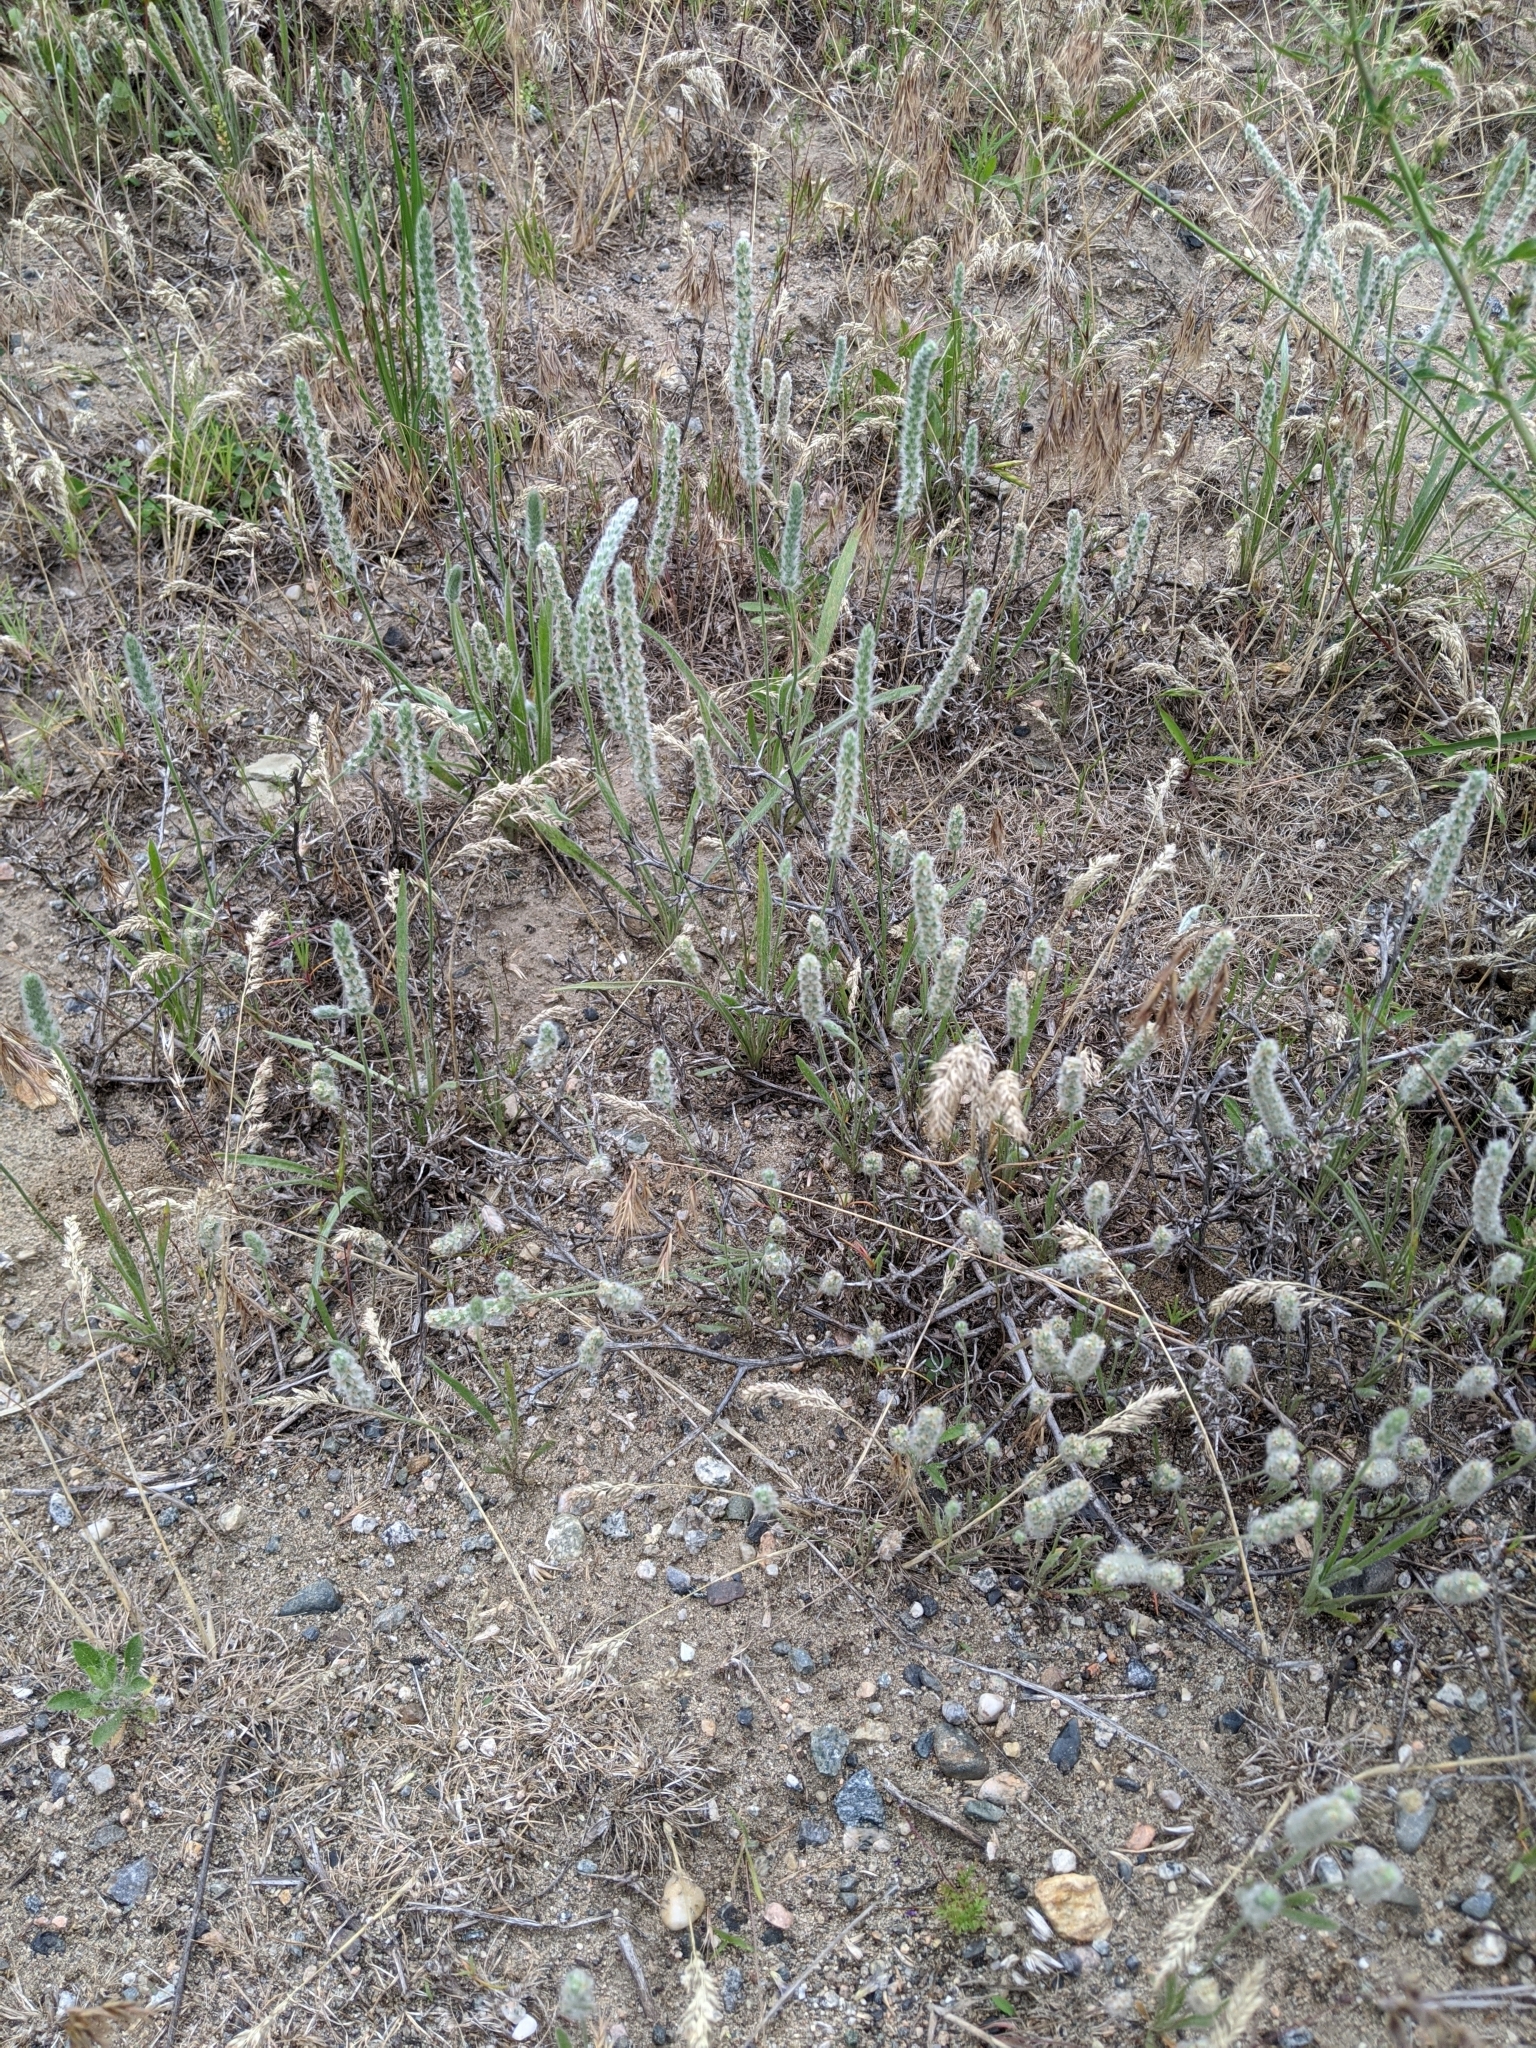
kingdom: Plantae
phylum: Tracheophyta
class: Magnoliopsida
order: Lamiales
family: Plantaginaceae
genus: Plantago
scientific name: Plantago patagonica
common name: Patagonia indian-wheat
